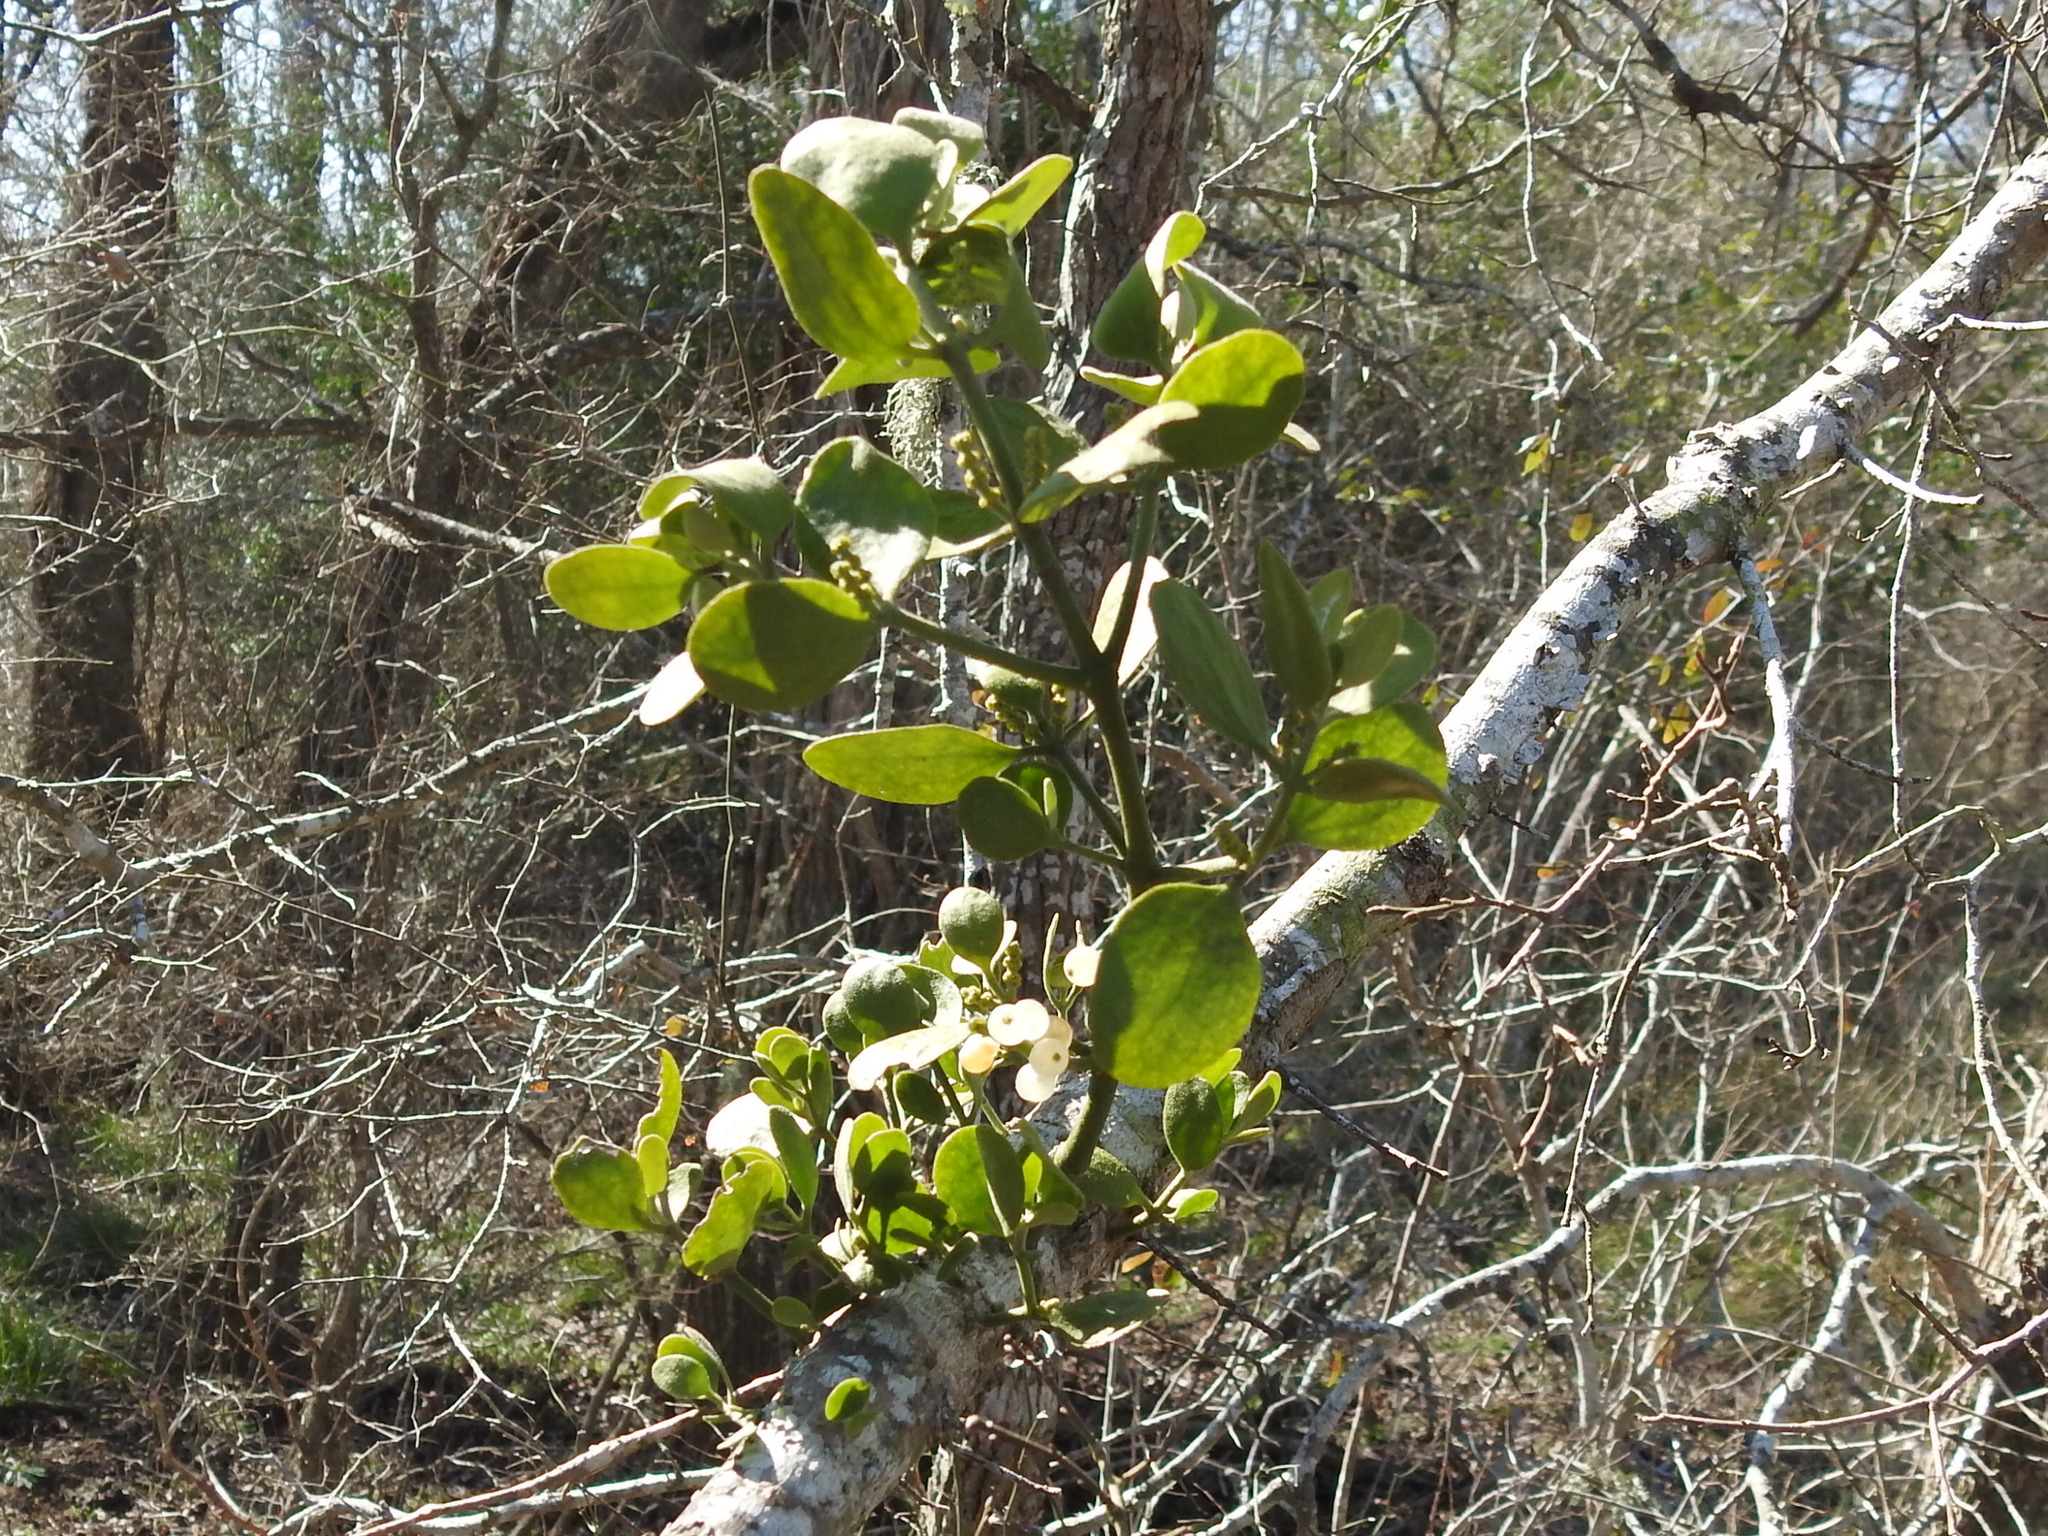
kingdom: Plantae
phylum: Tracheophyta
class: Magnoliopsida
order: Santalales
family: Viscaceae
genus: Phoradendron
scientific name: Phoradendron leucarpum
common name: Pacific mistletoe
